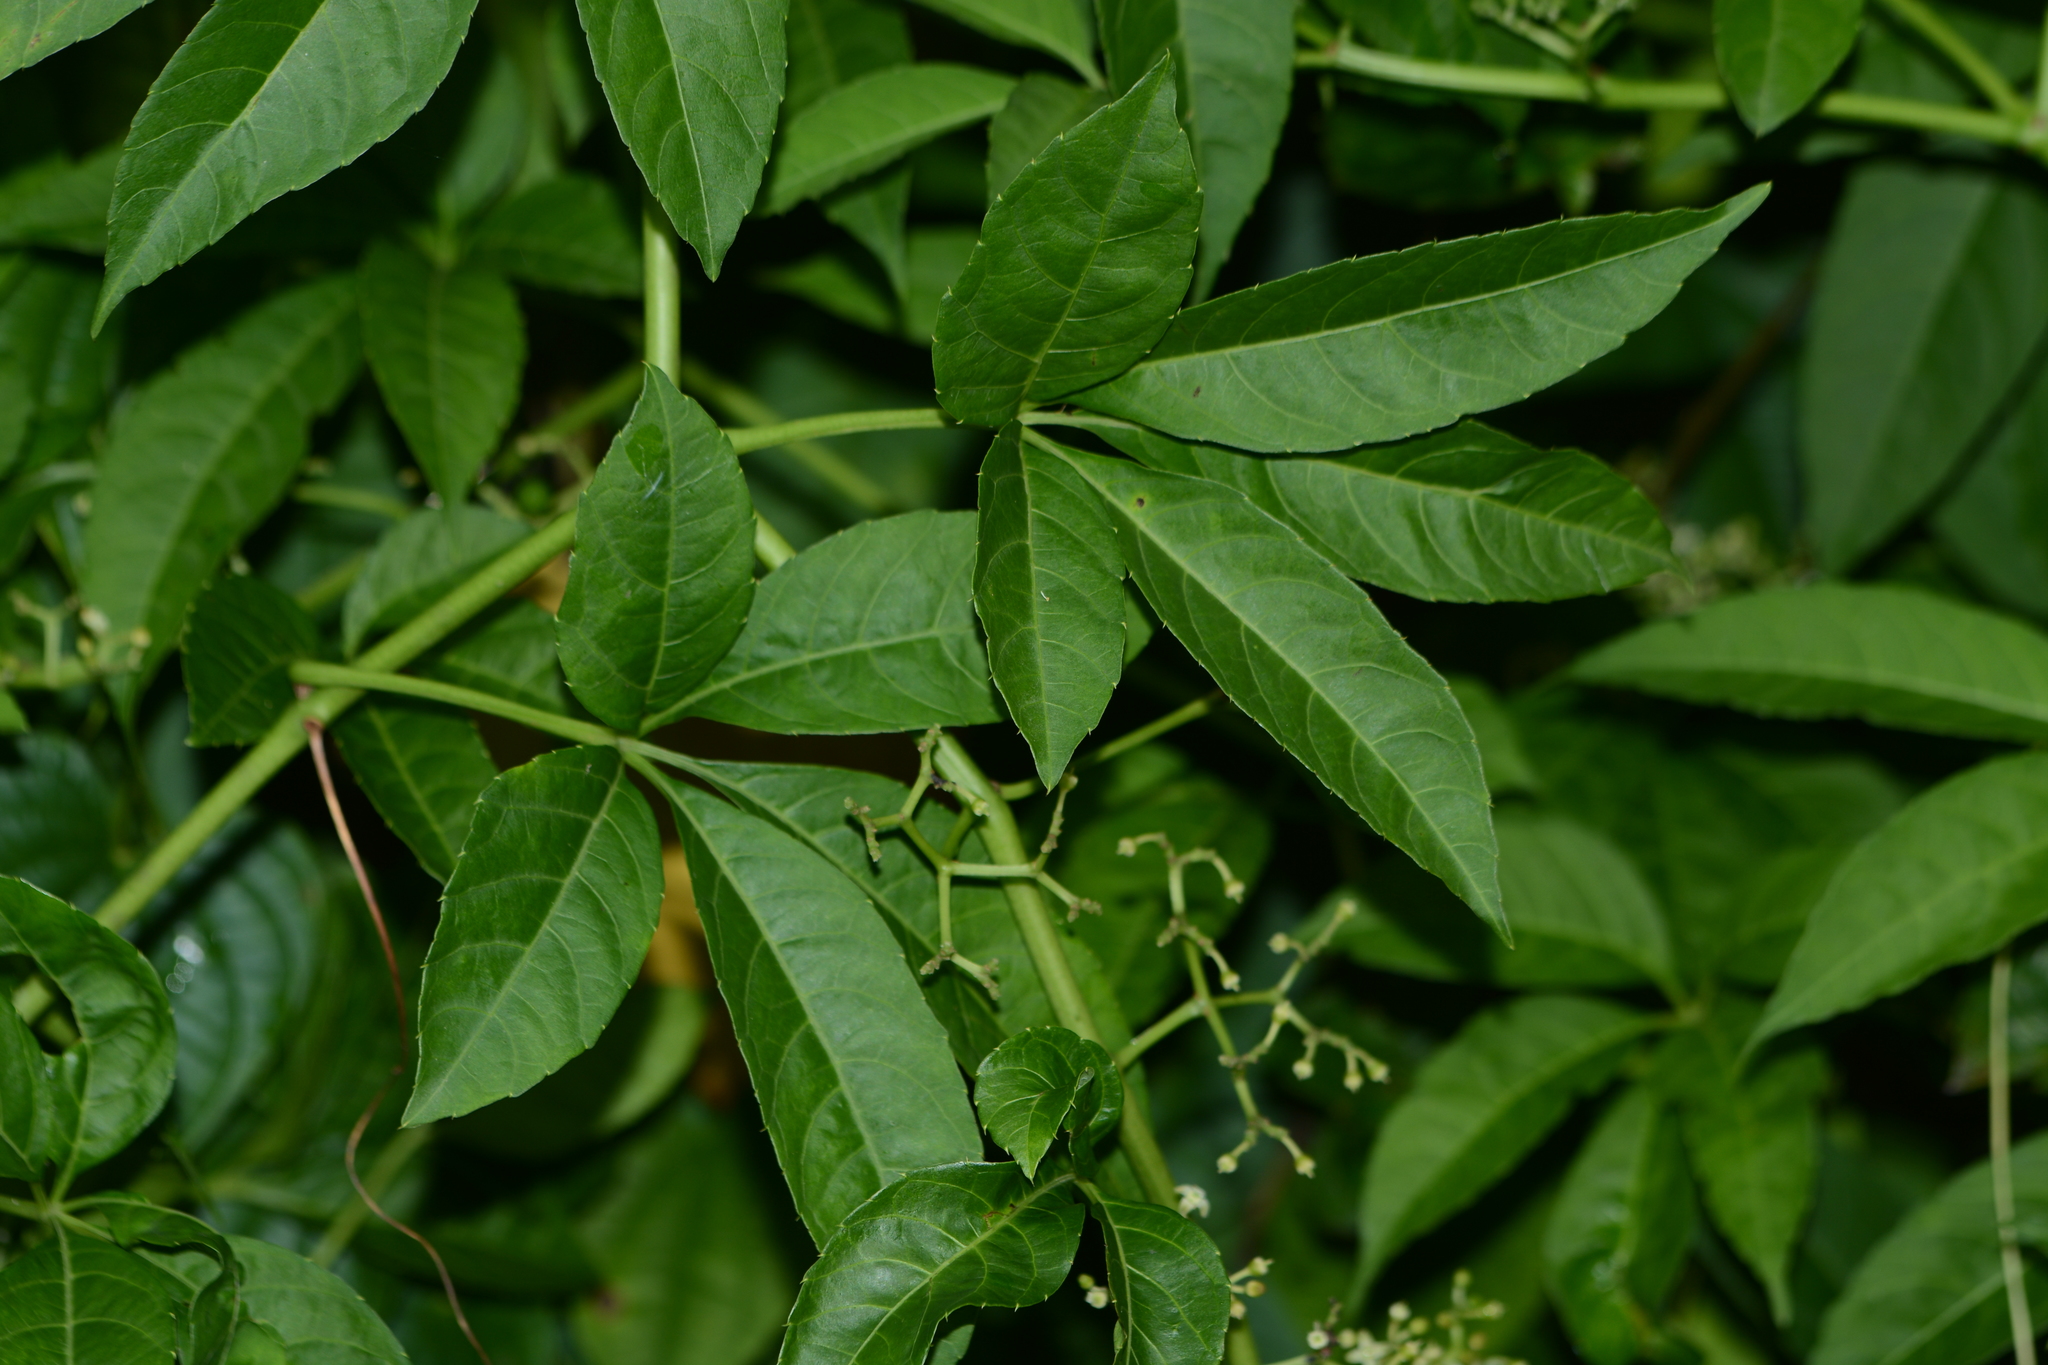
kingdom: Plantae
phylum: Tracheophyta
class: Magnoliopsida
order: Vitales
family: Vitaceae
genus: Cayratia
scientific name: Cayratia auriculata
